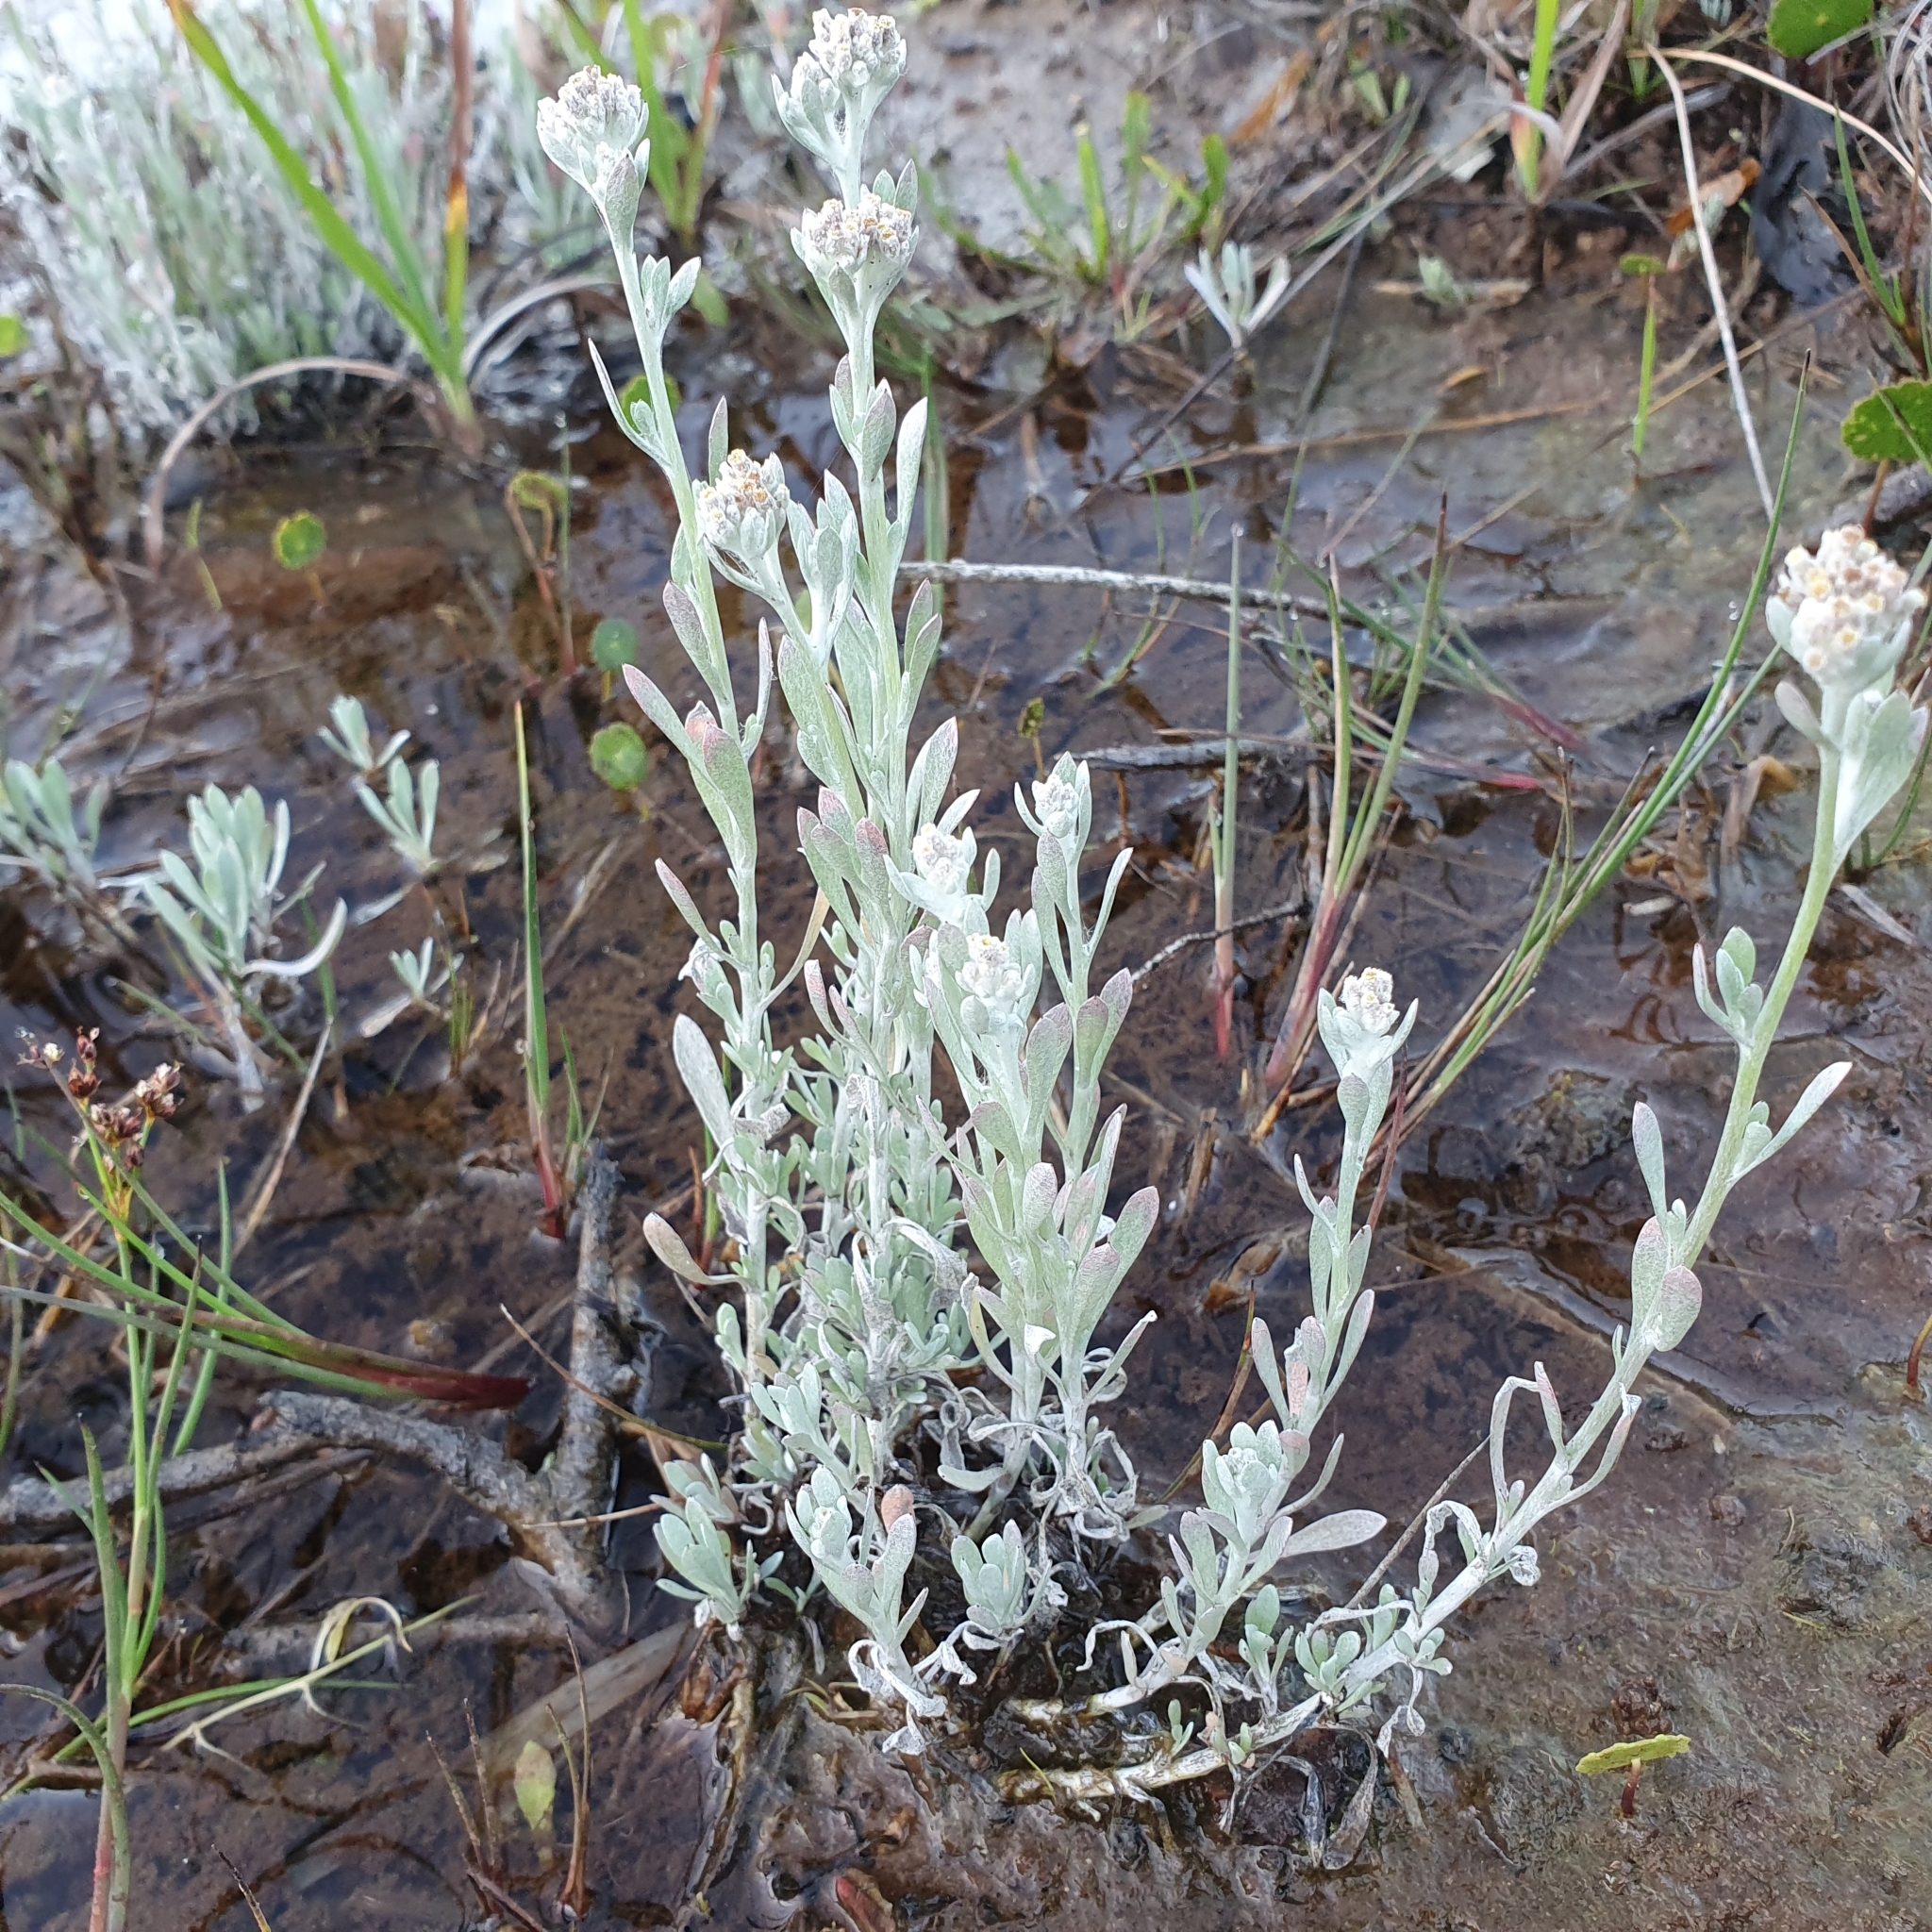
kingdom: Plantae
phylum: Tracheophyta
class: Magnoliopsida
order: Asterales
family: Asteraceae
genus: Vellereophyton
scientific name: Vellereophyton dealbatum
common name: White-cudweed
